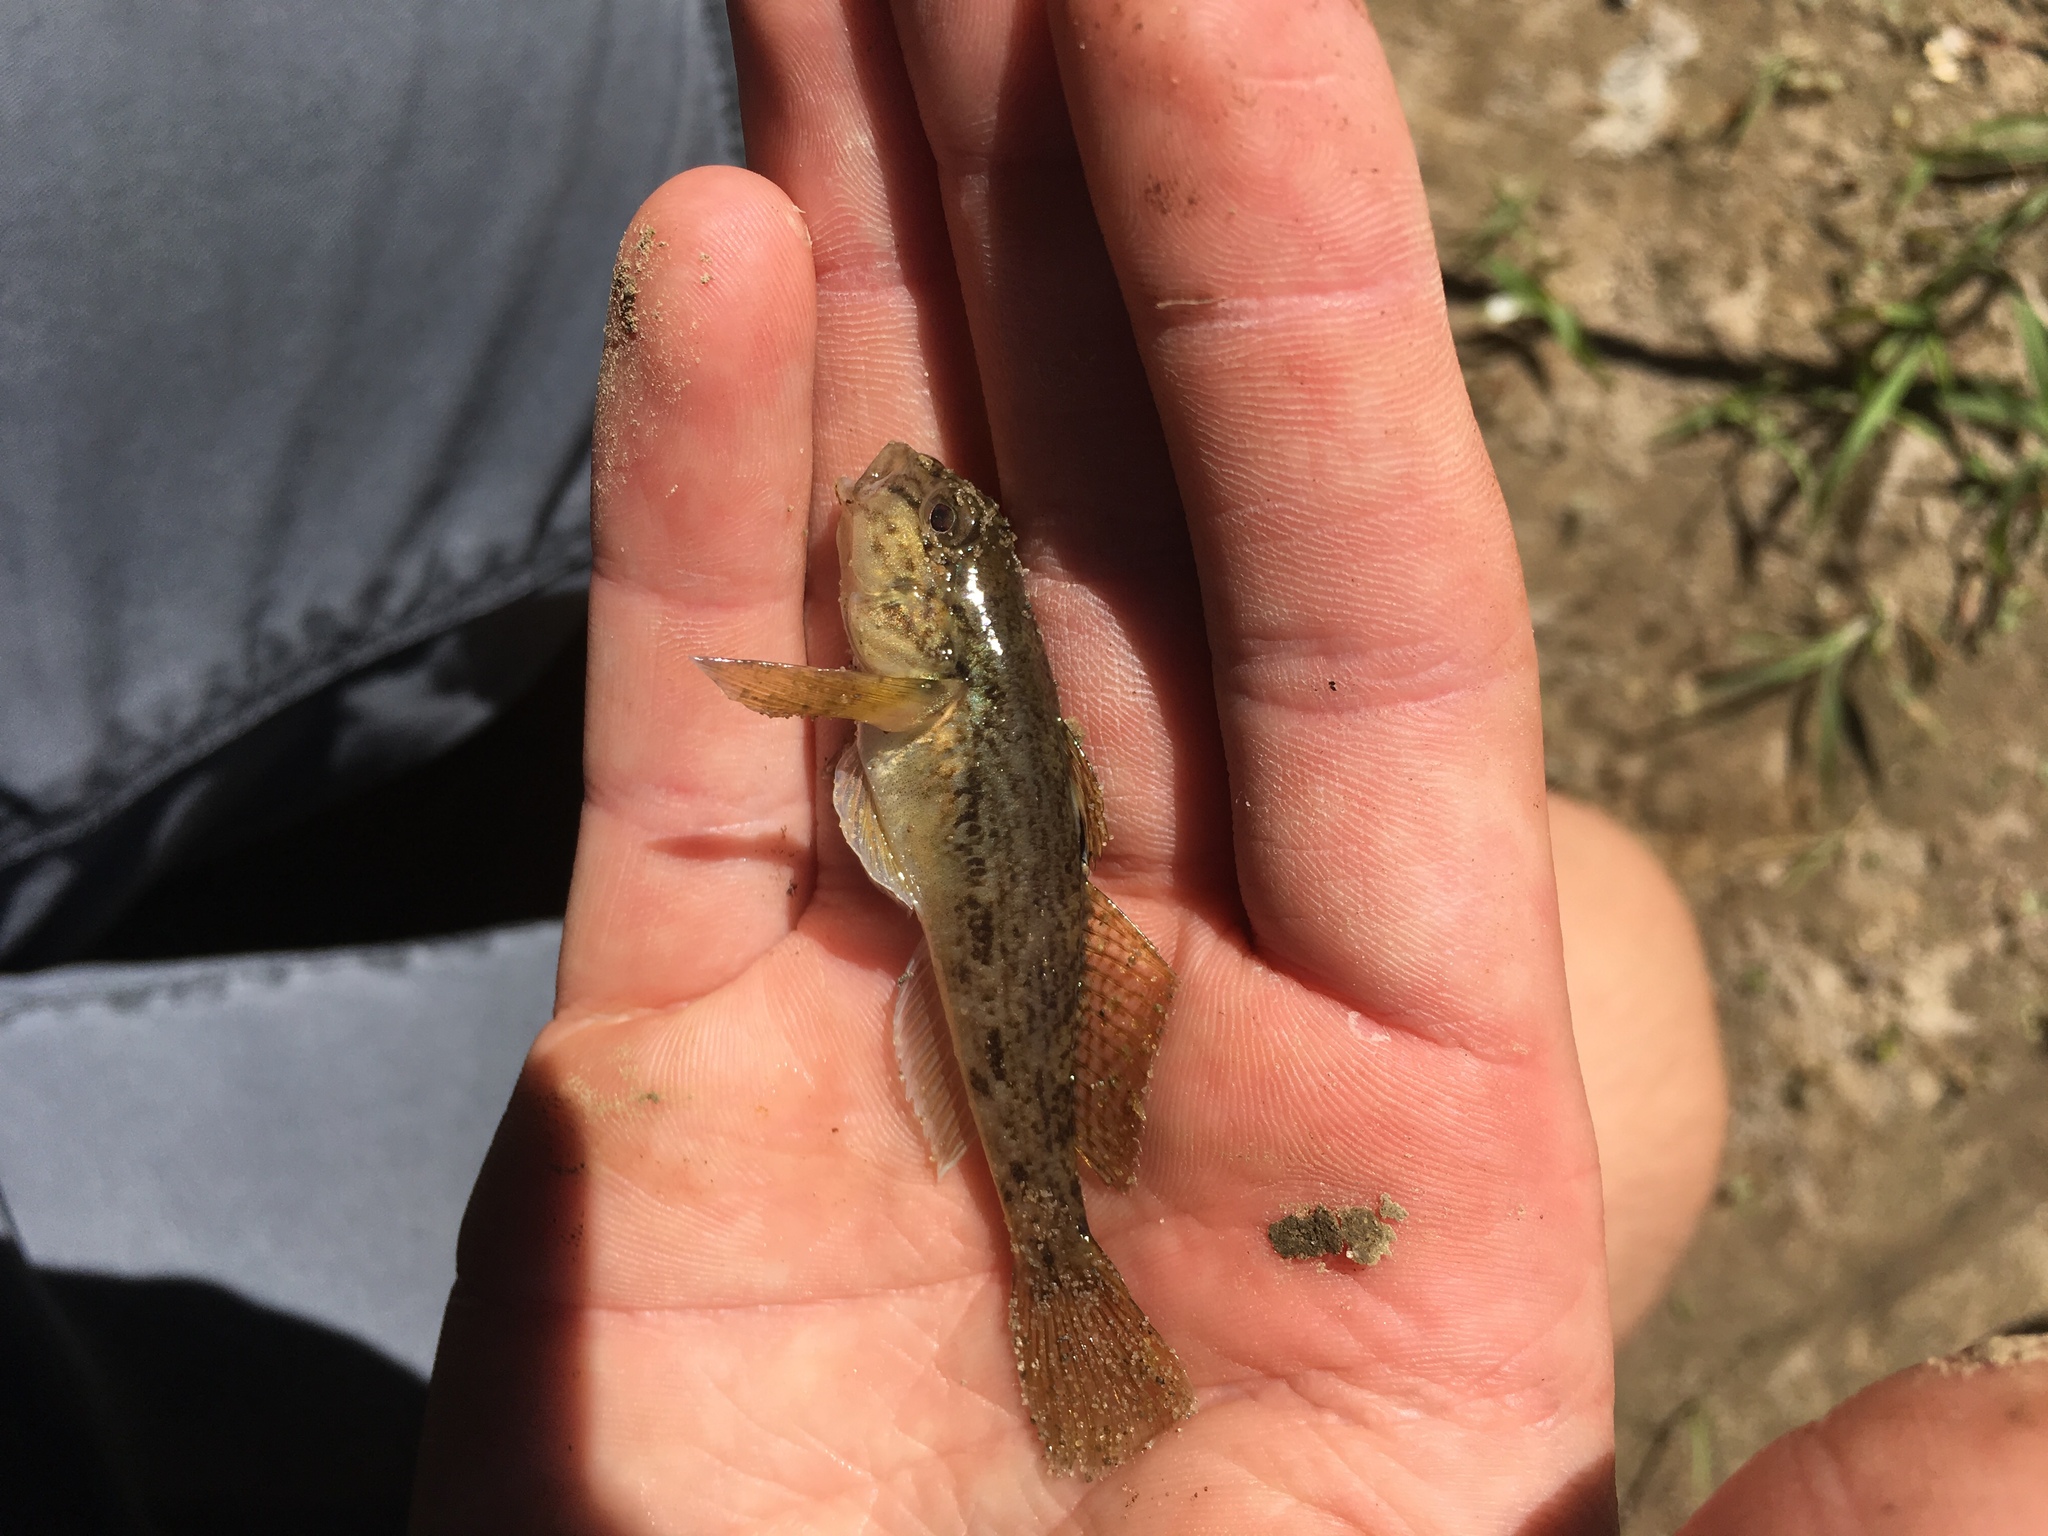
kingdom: Animalia
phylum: Chordata
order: Perciformes
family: Gobiidae
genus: Neogobius
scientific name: Neogobius melanostomus
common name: Round goby
